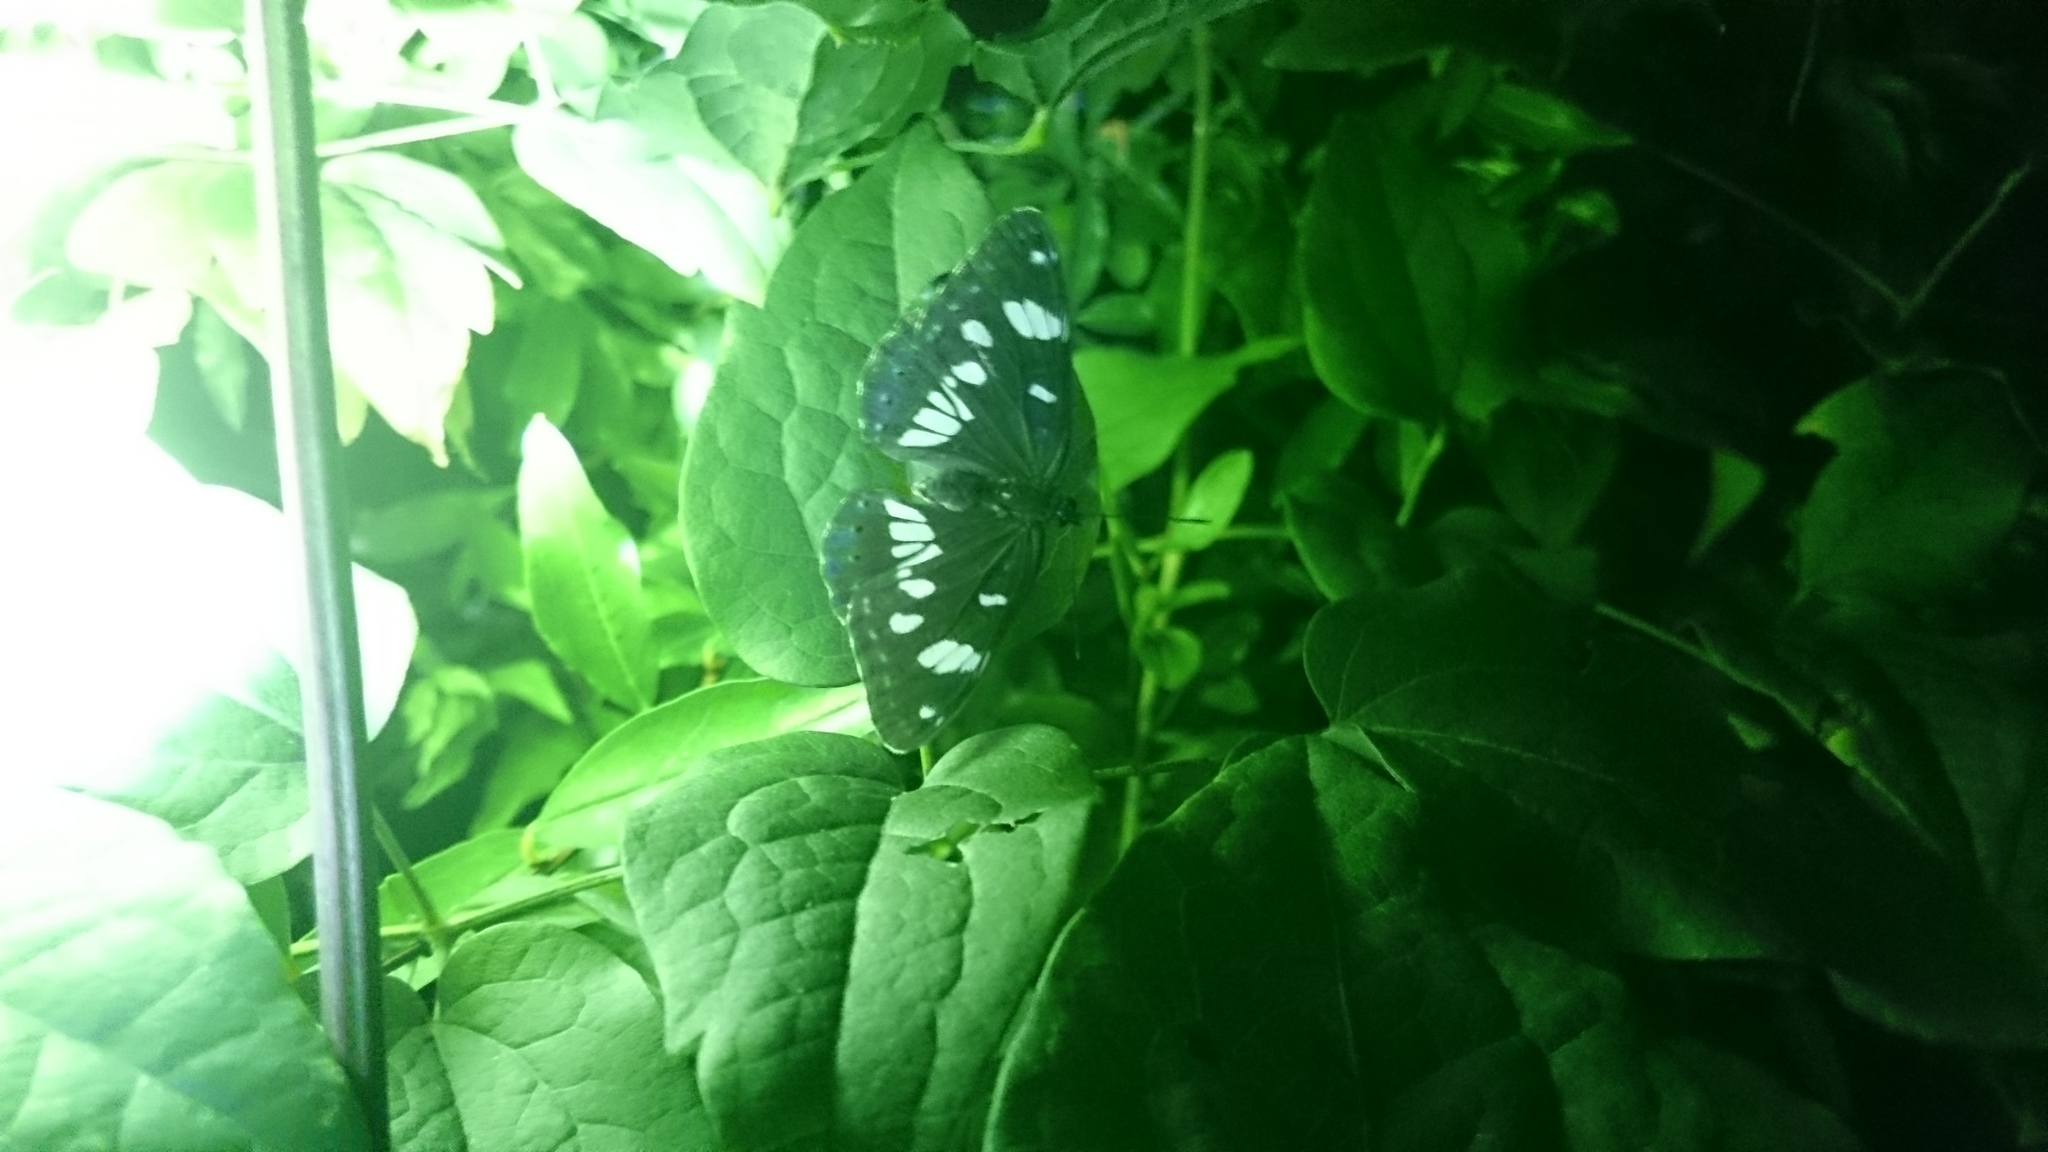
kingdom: Animalia
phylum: Arthropoda
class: Insecta
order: Lepidoptera
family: Nymphalidae
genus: Limenitis
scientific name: Limenitis reducta
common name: Southern white admiral
